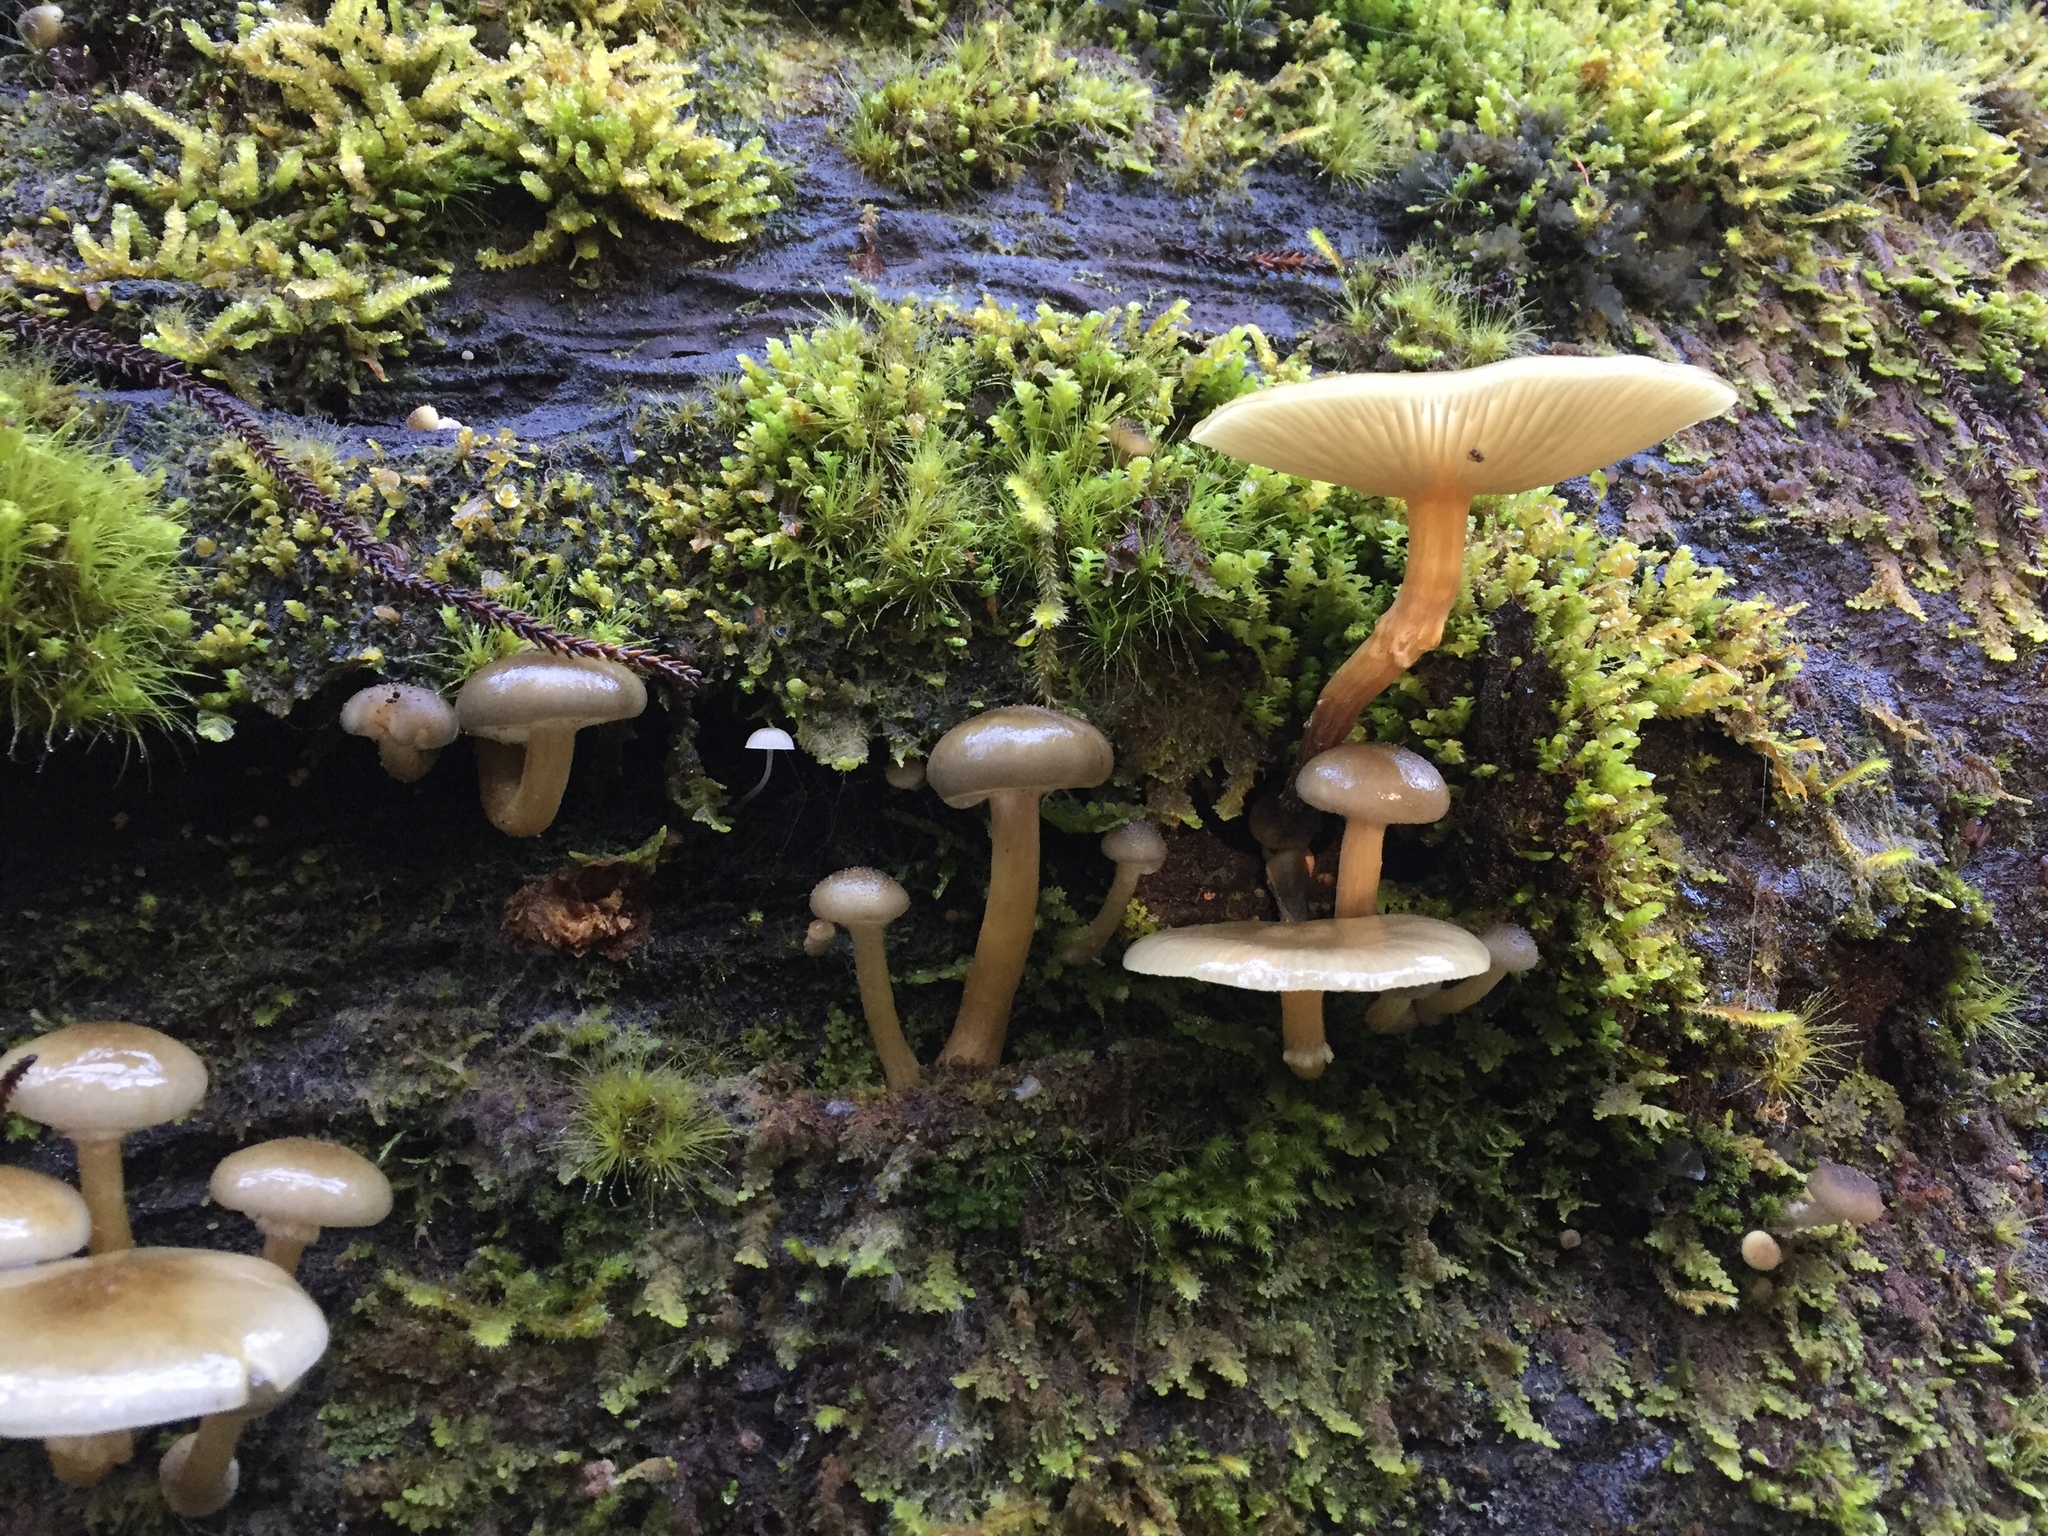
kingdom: Fungi
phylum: Basidiomycota
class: Agaricomycetes
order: Agaricales
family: Physalacriaceae
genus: Armillaria
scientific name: Armillaria novae-zelandiae
